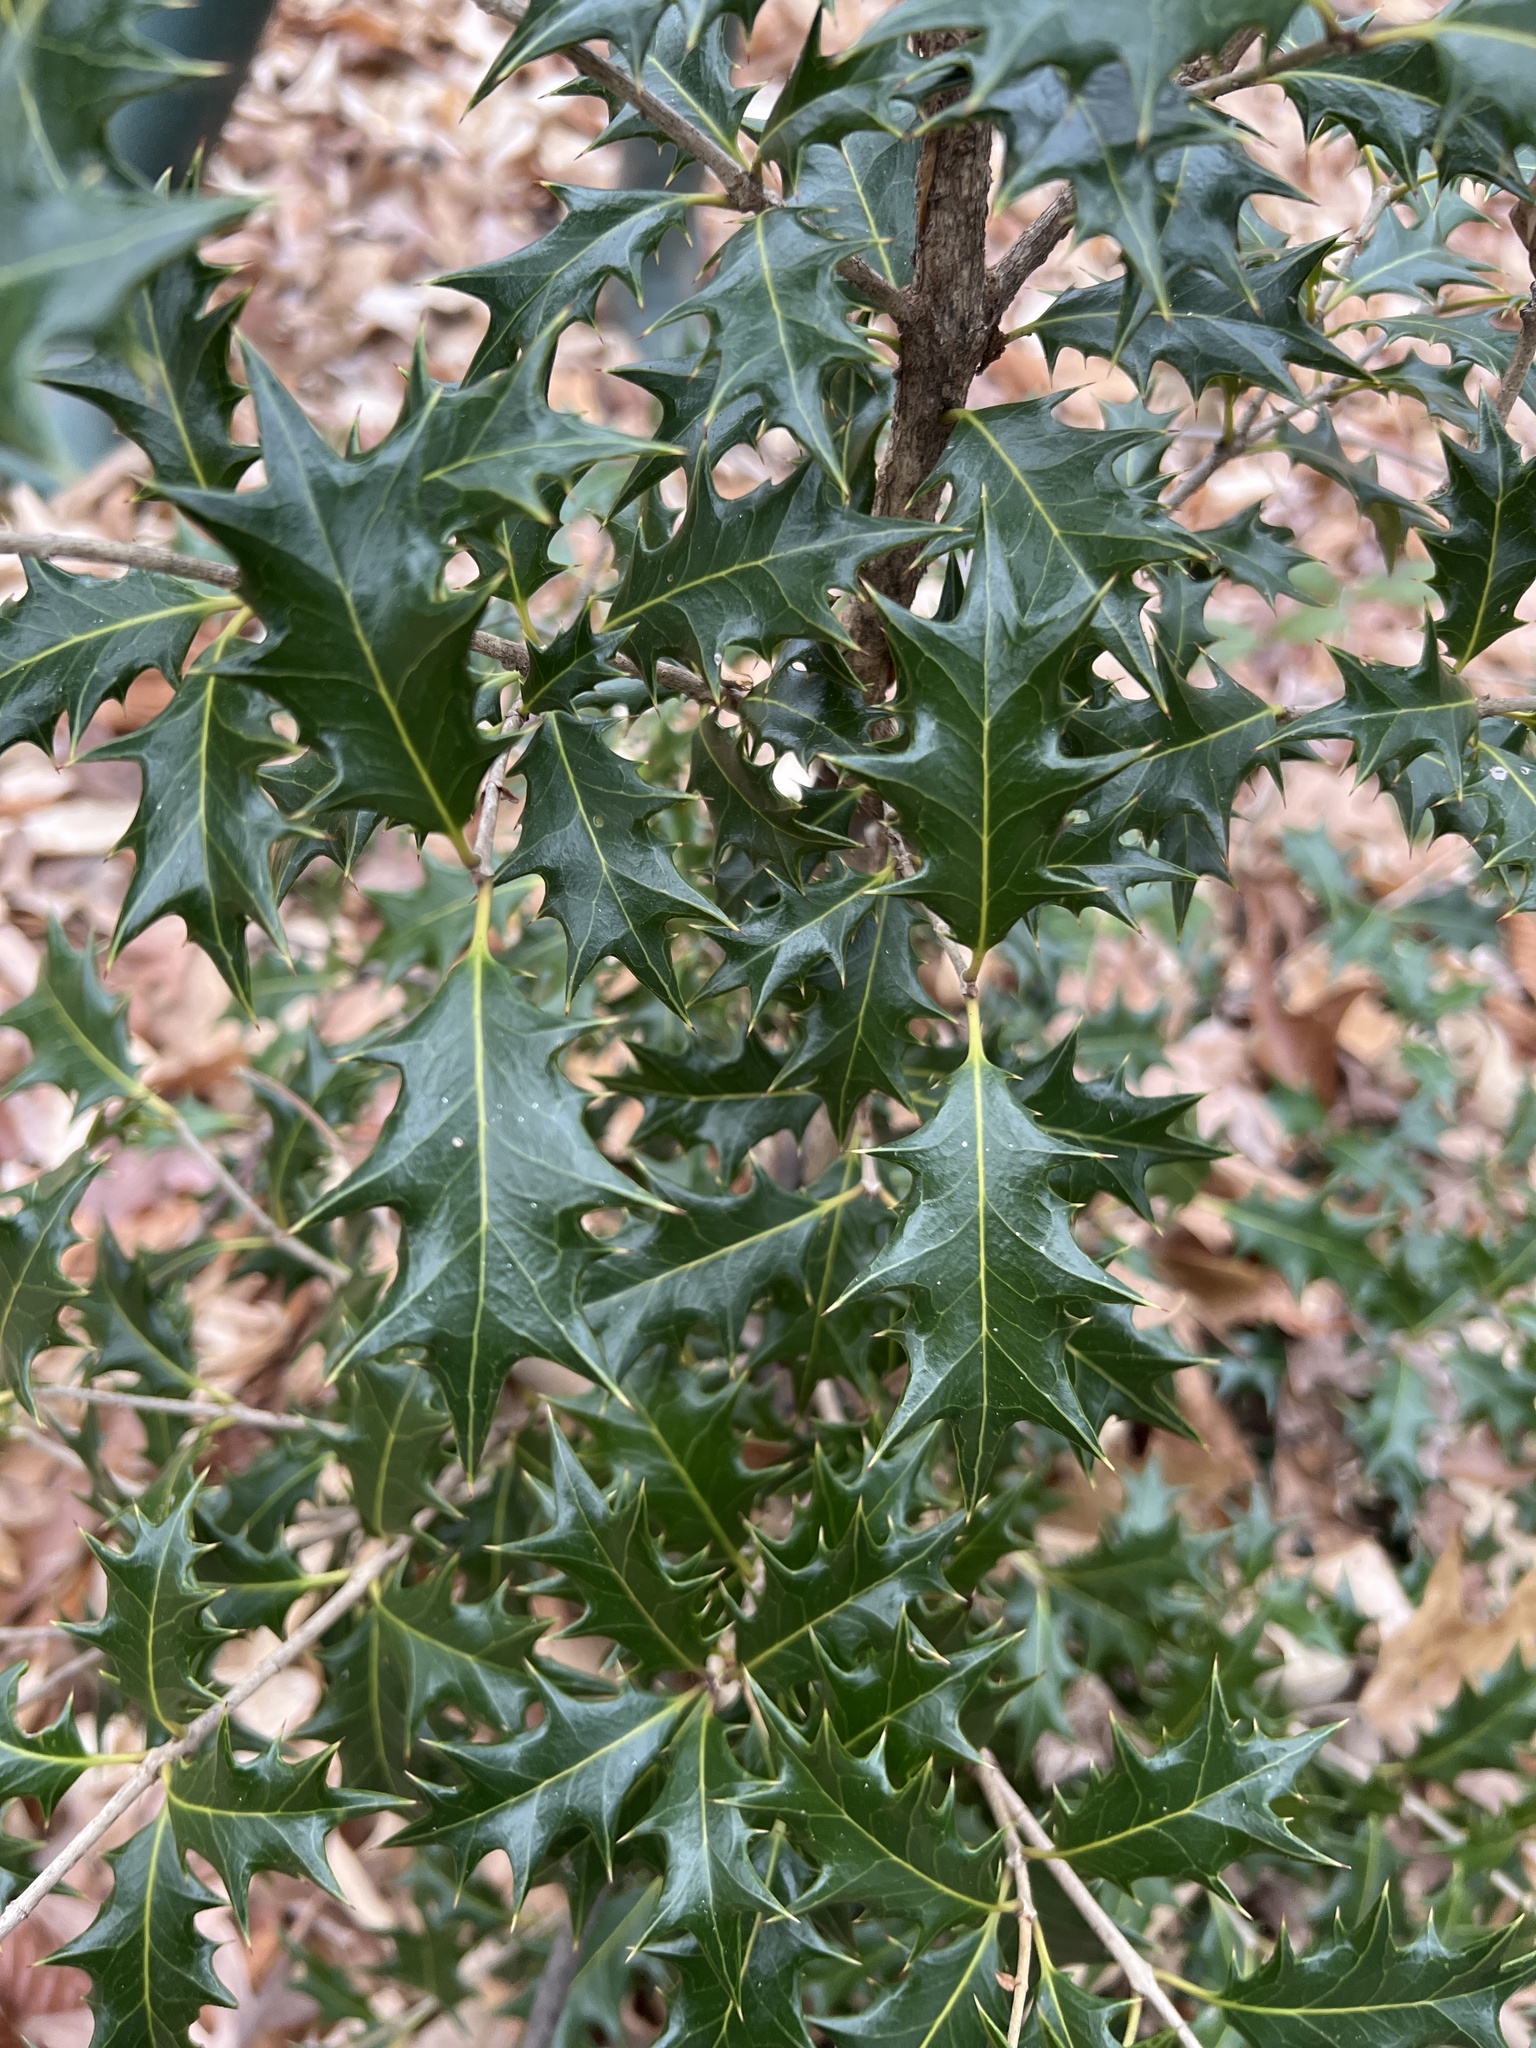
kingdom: Plantae
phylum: Tracheophyta
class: Magnoliopsida
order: Lamiales
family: Oleaceae
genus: Osmanthus
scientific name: Osmanthus heterophyllus
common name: Holly osmanthus
